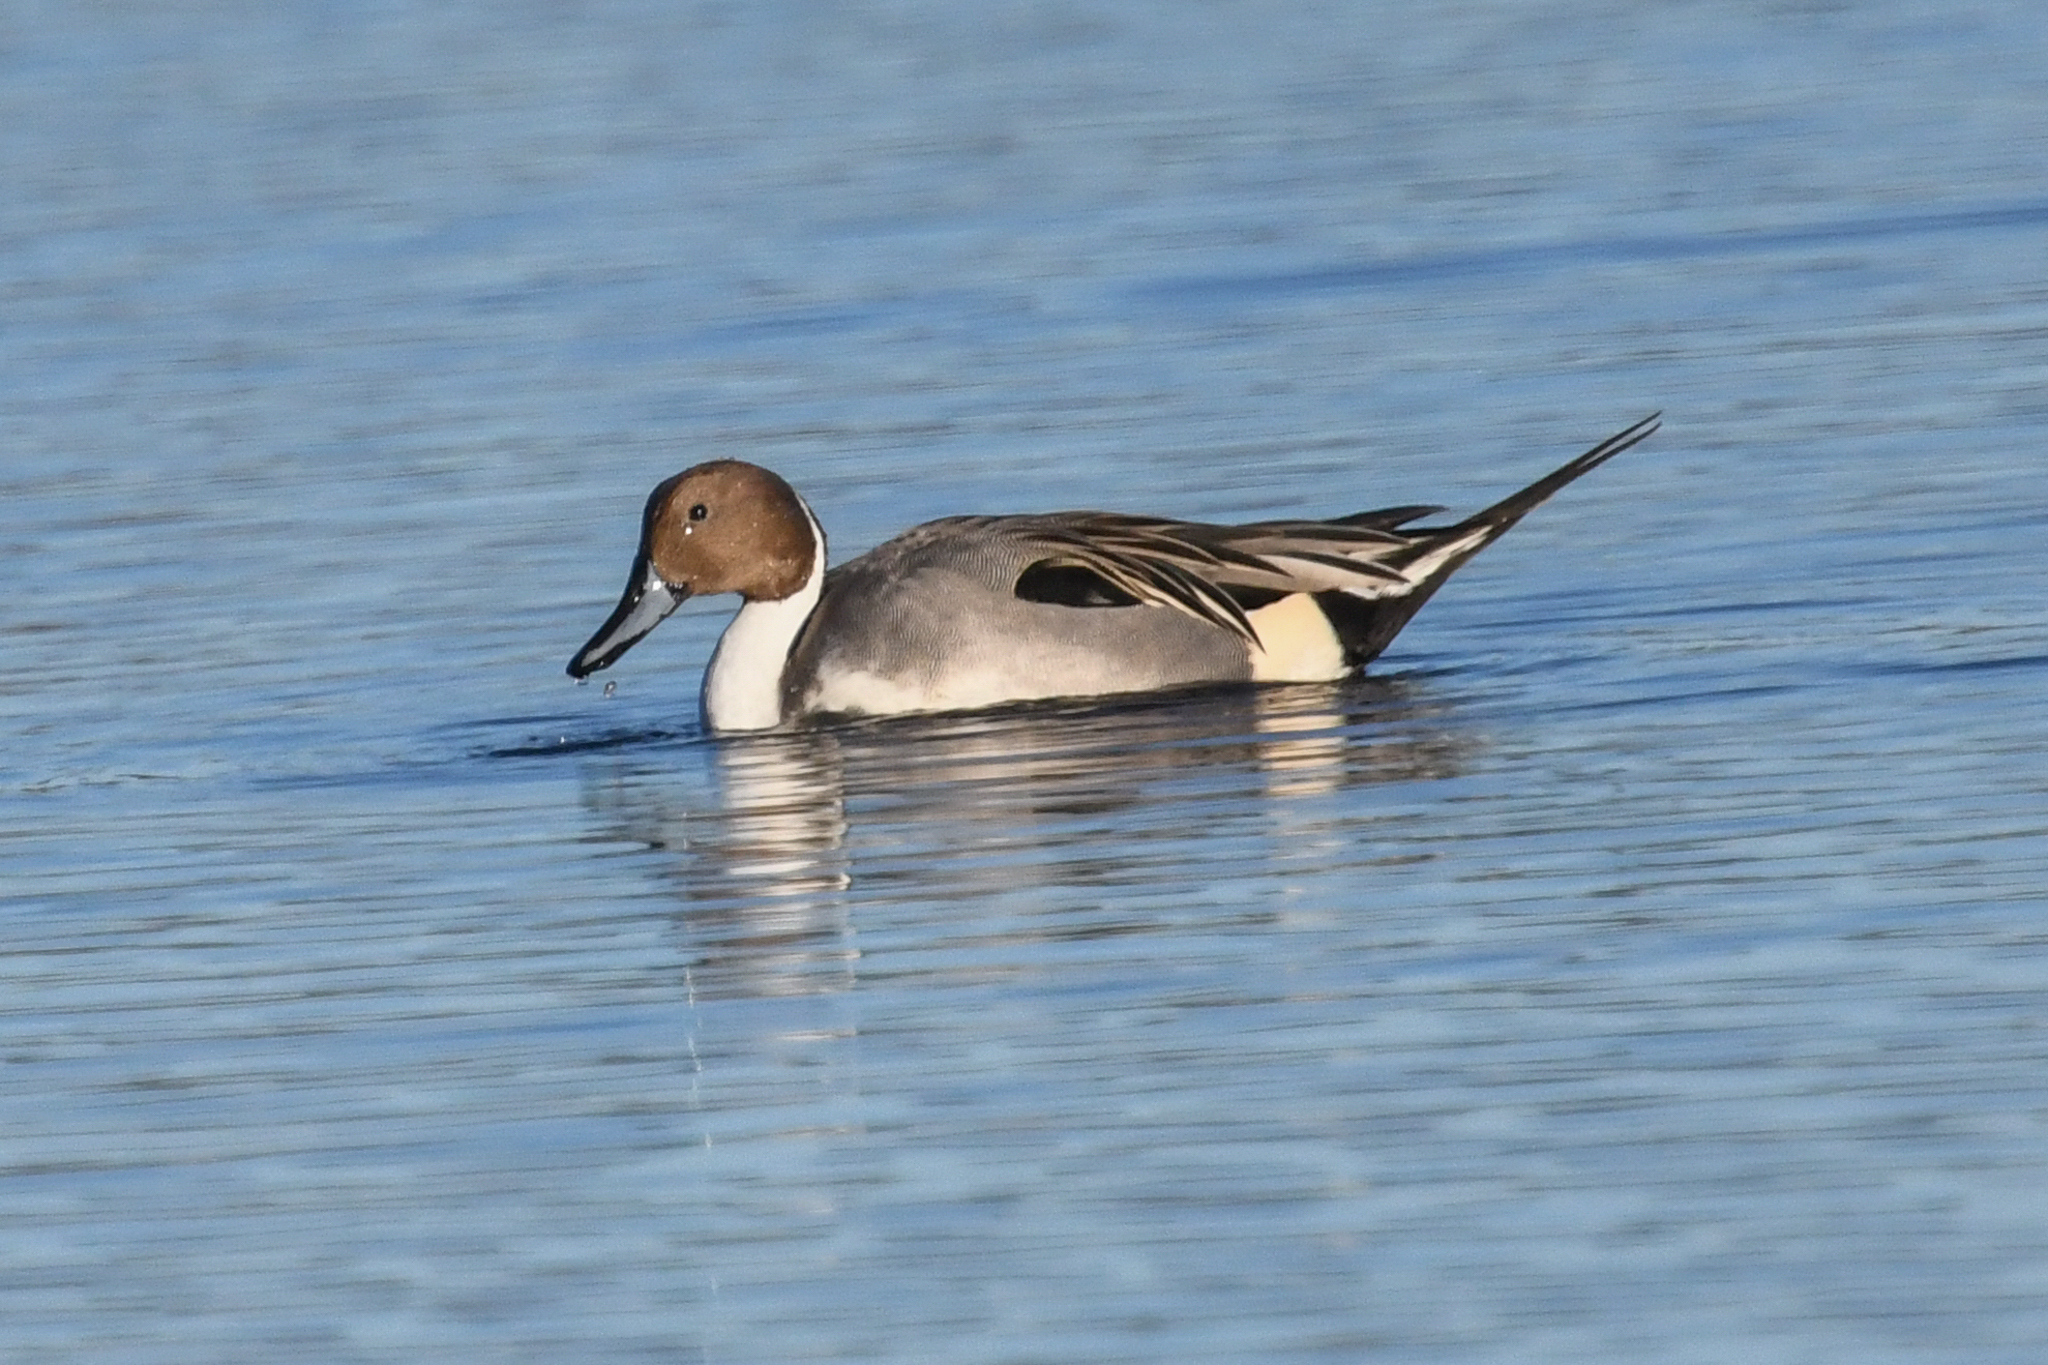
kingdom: Animalia
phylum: Chordata
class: Aves
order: Anseriformes
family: Anatidae
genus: Anas
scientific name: Anas acuta
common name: Northern pintail
